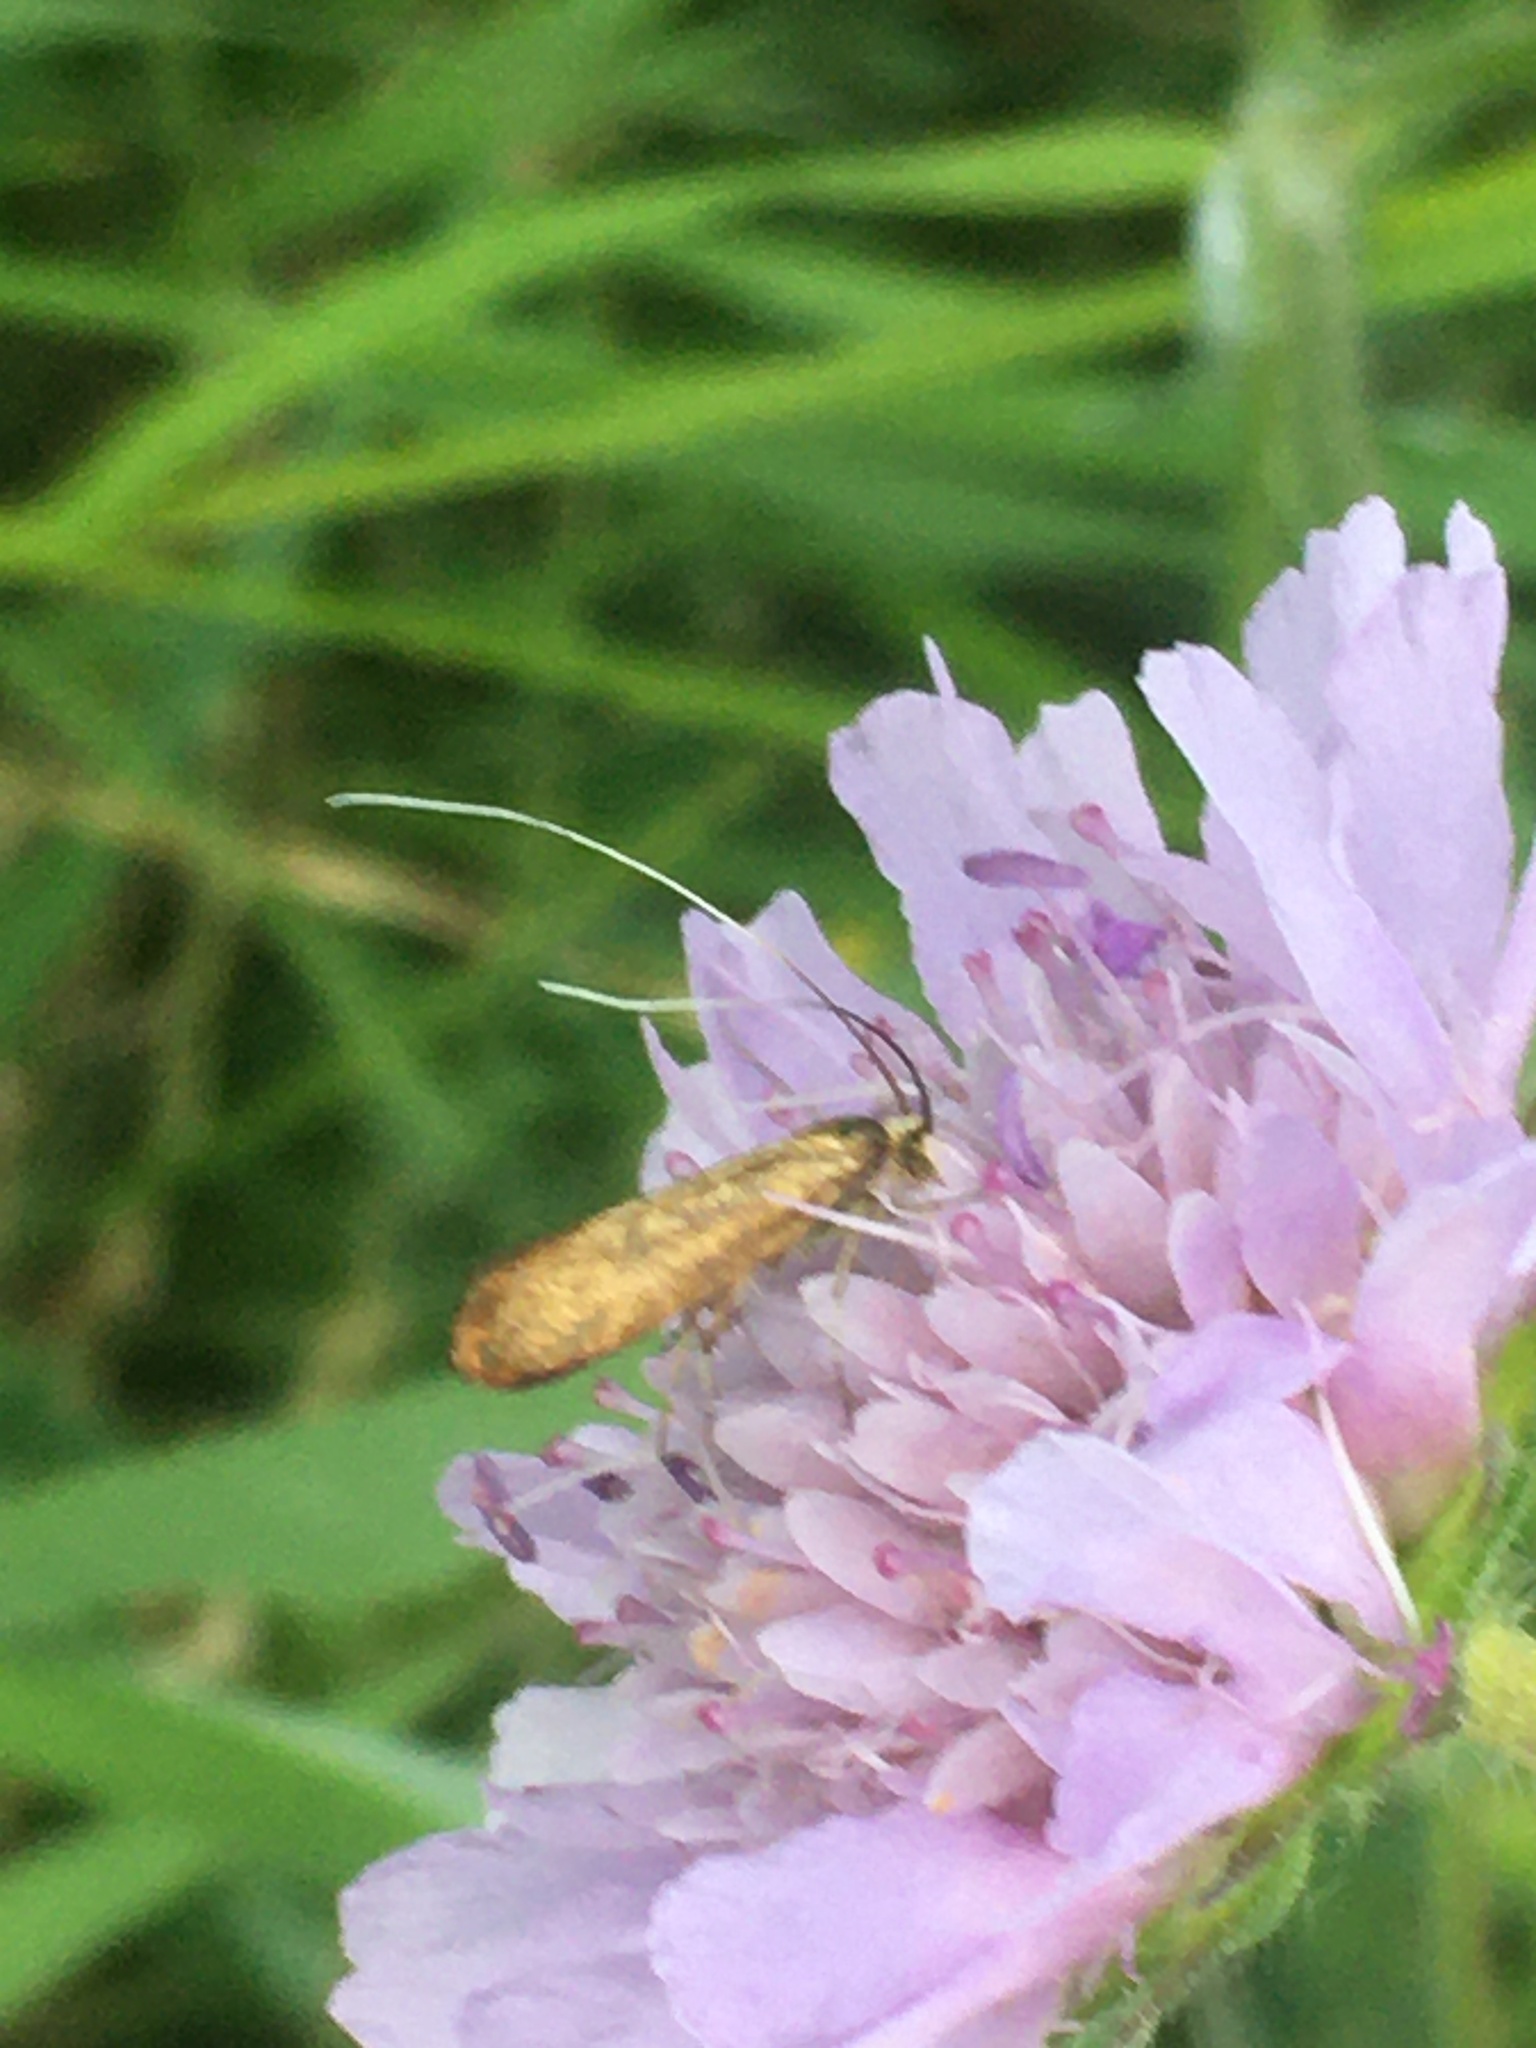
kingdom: Animalia
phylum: Arthropoda
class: Insecta
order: Lepidoptera
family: Adelidae
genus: Nemophora
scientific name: Nemophora metallica
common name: Brassy long-horn
